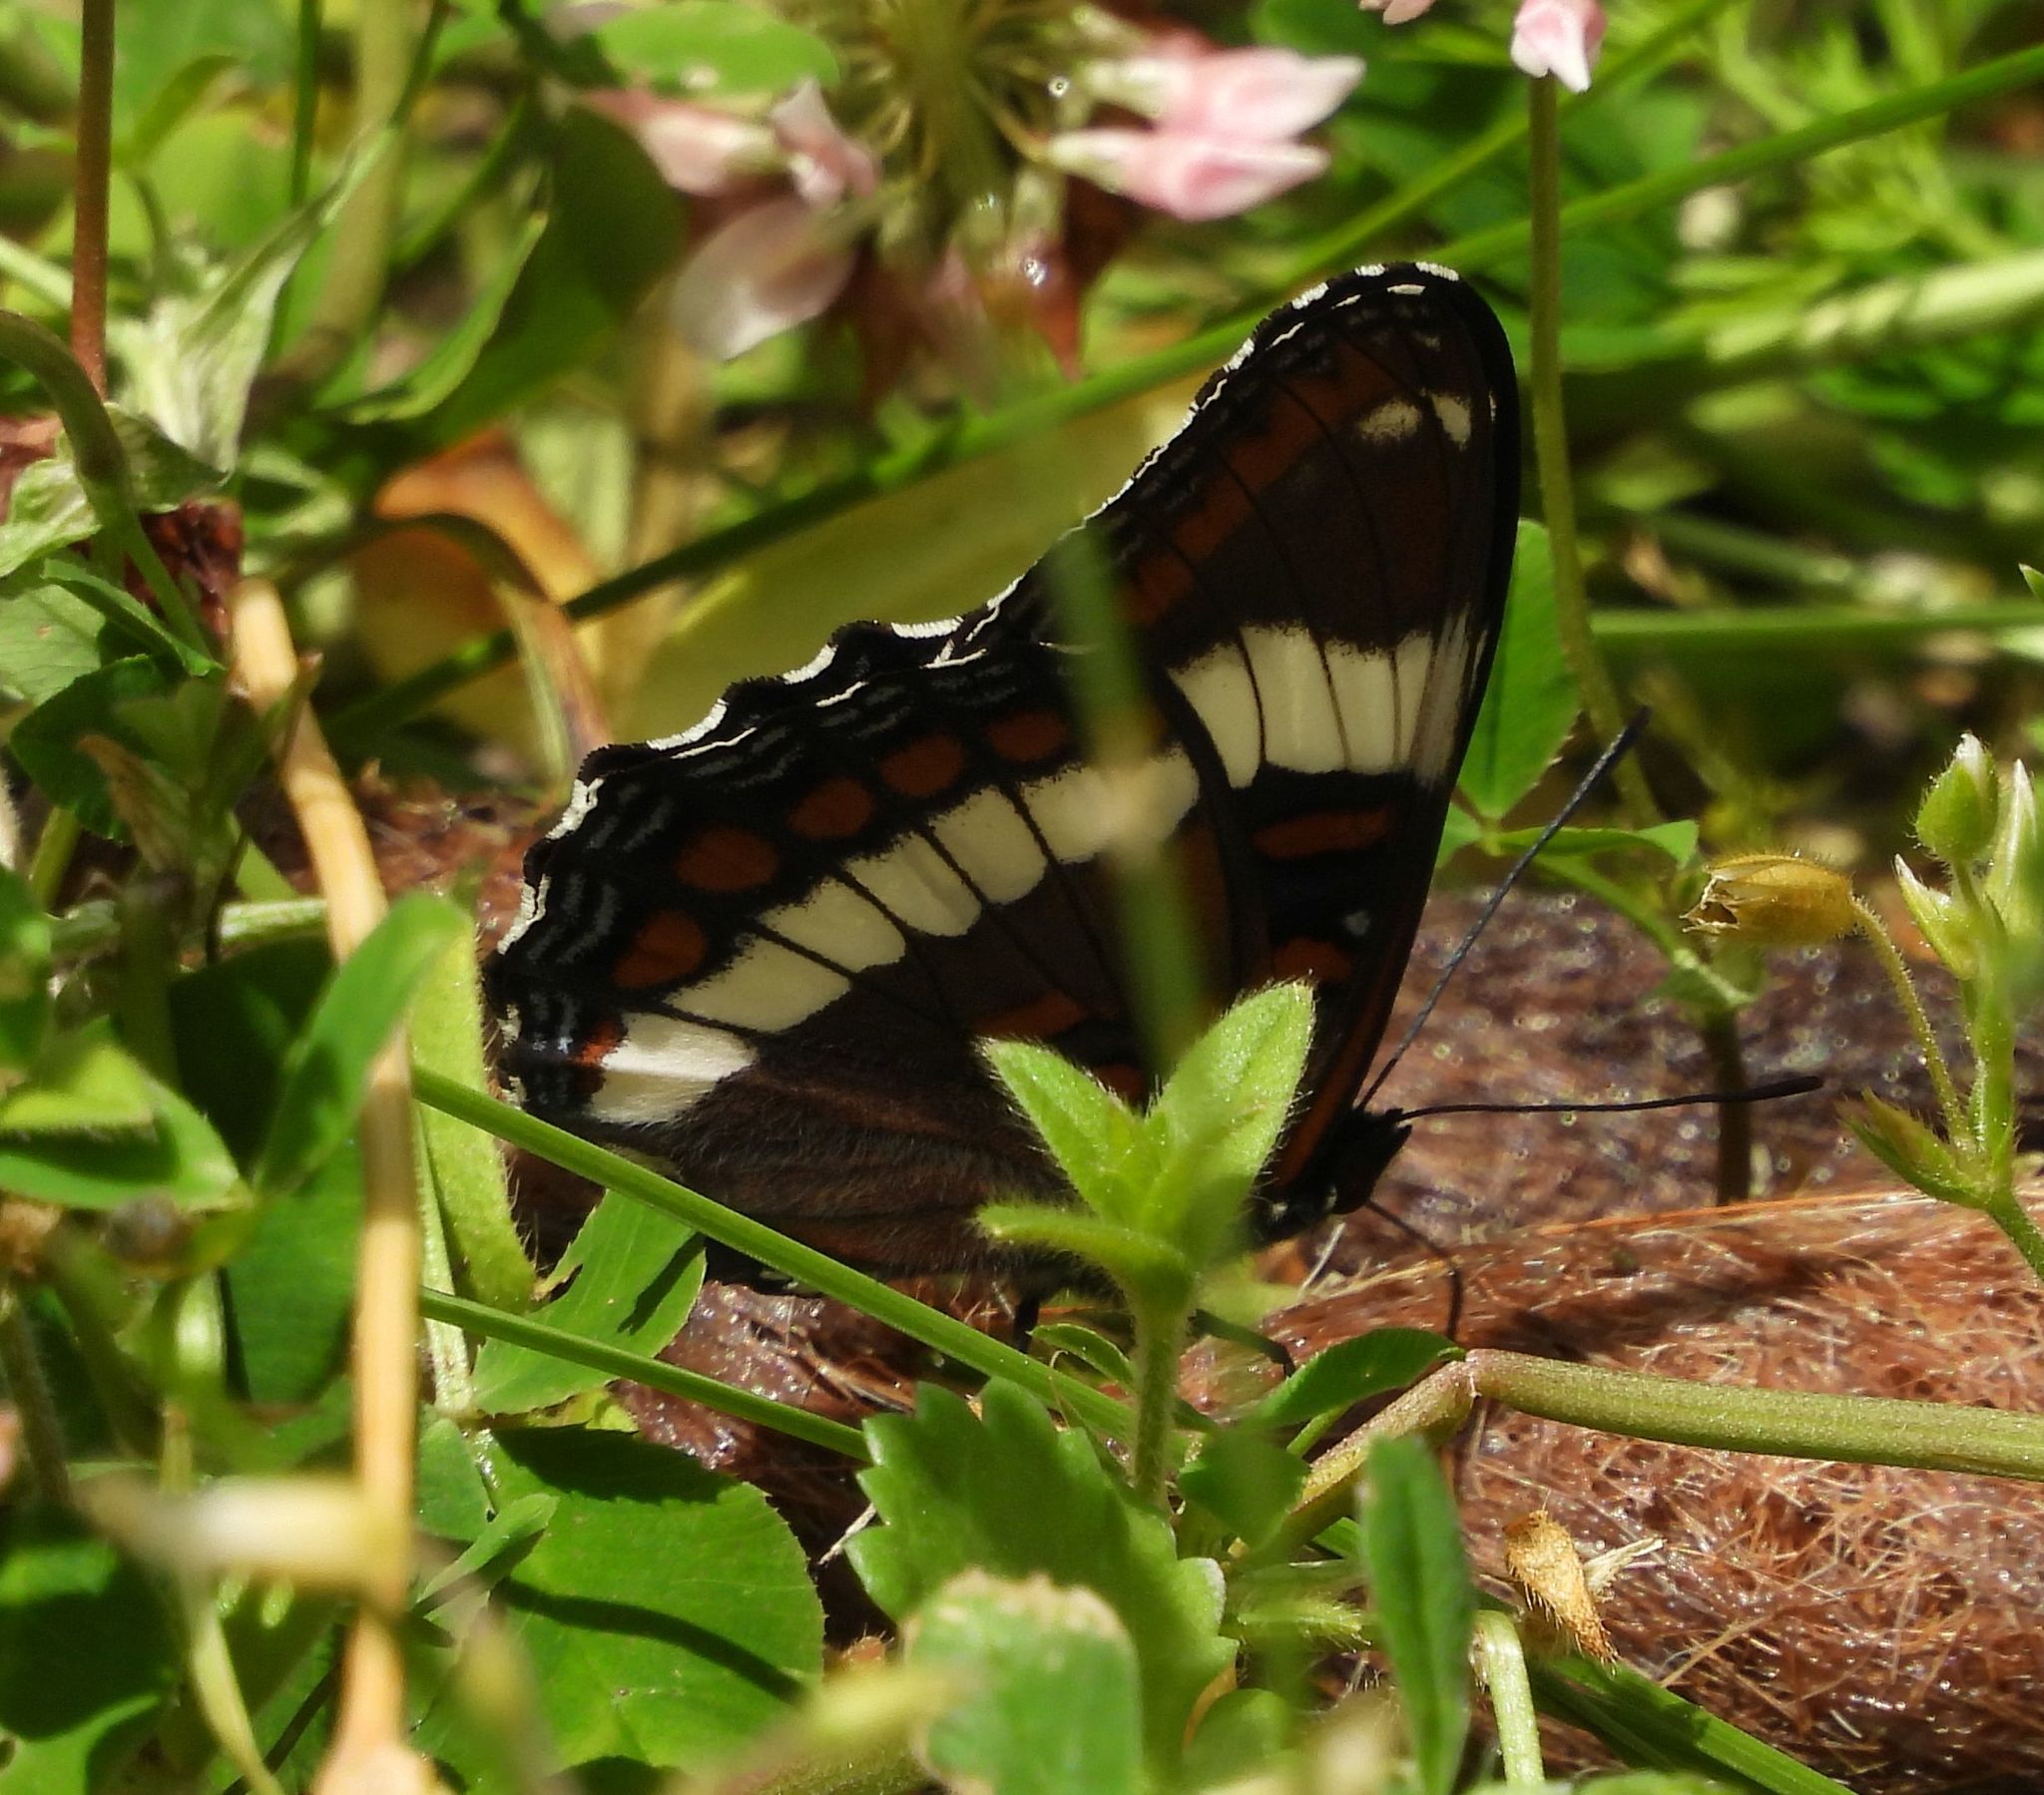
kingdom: Animalia
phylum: Arthropoda
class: Insecta
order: Lepidoptera
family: Nymphalidae
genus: Limenitis
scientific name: Limenitis arthemis
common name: Red-spotted admiral
